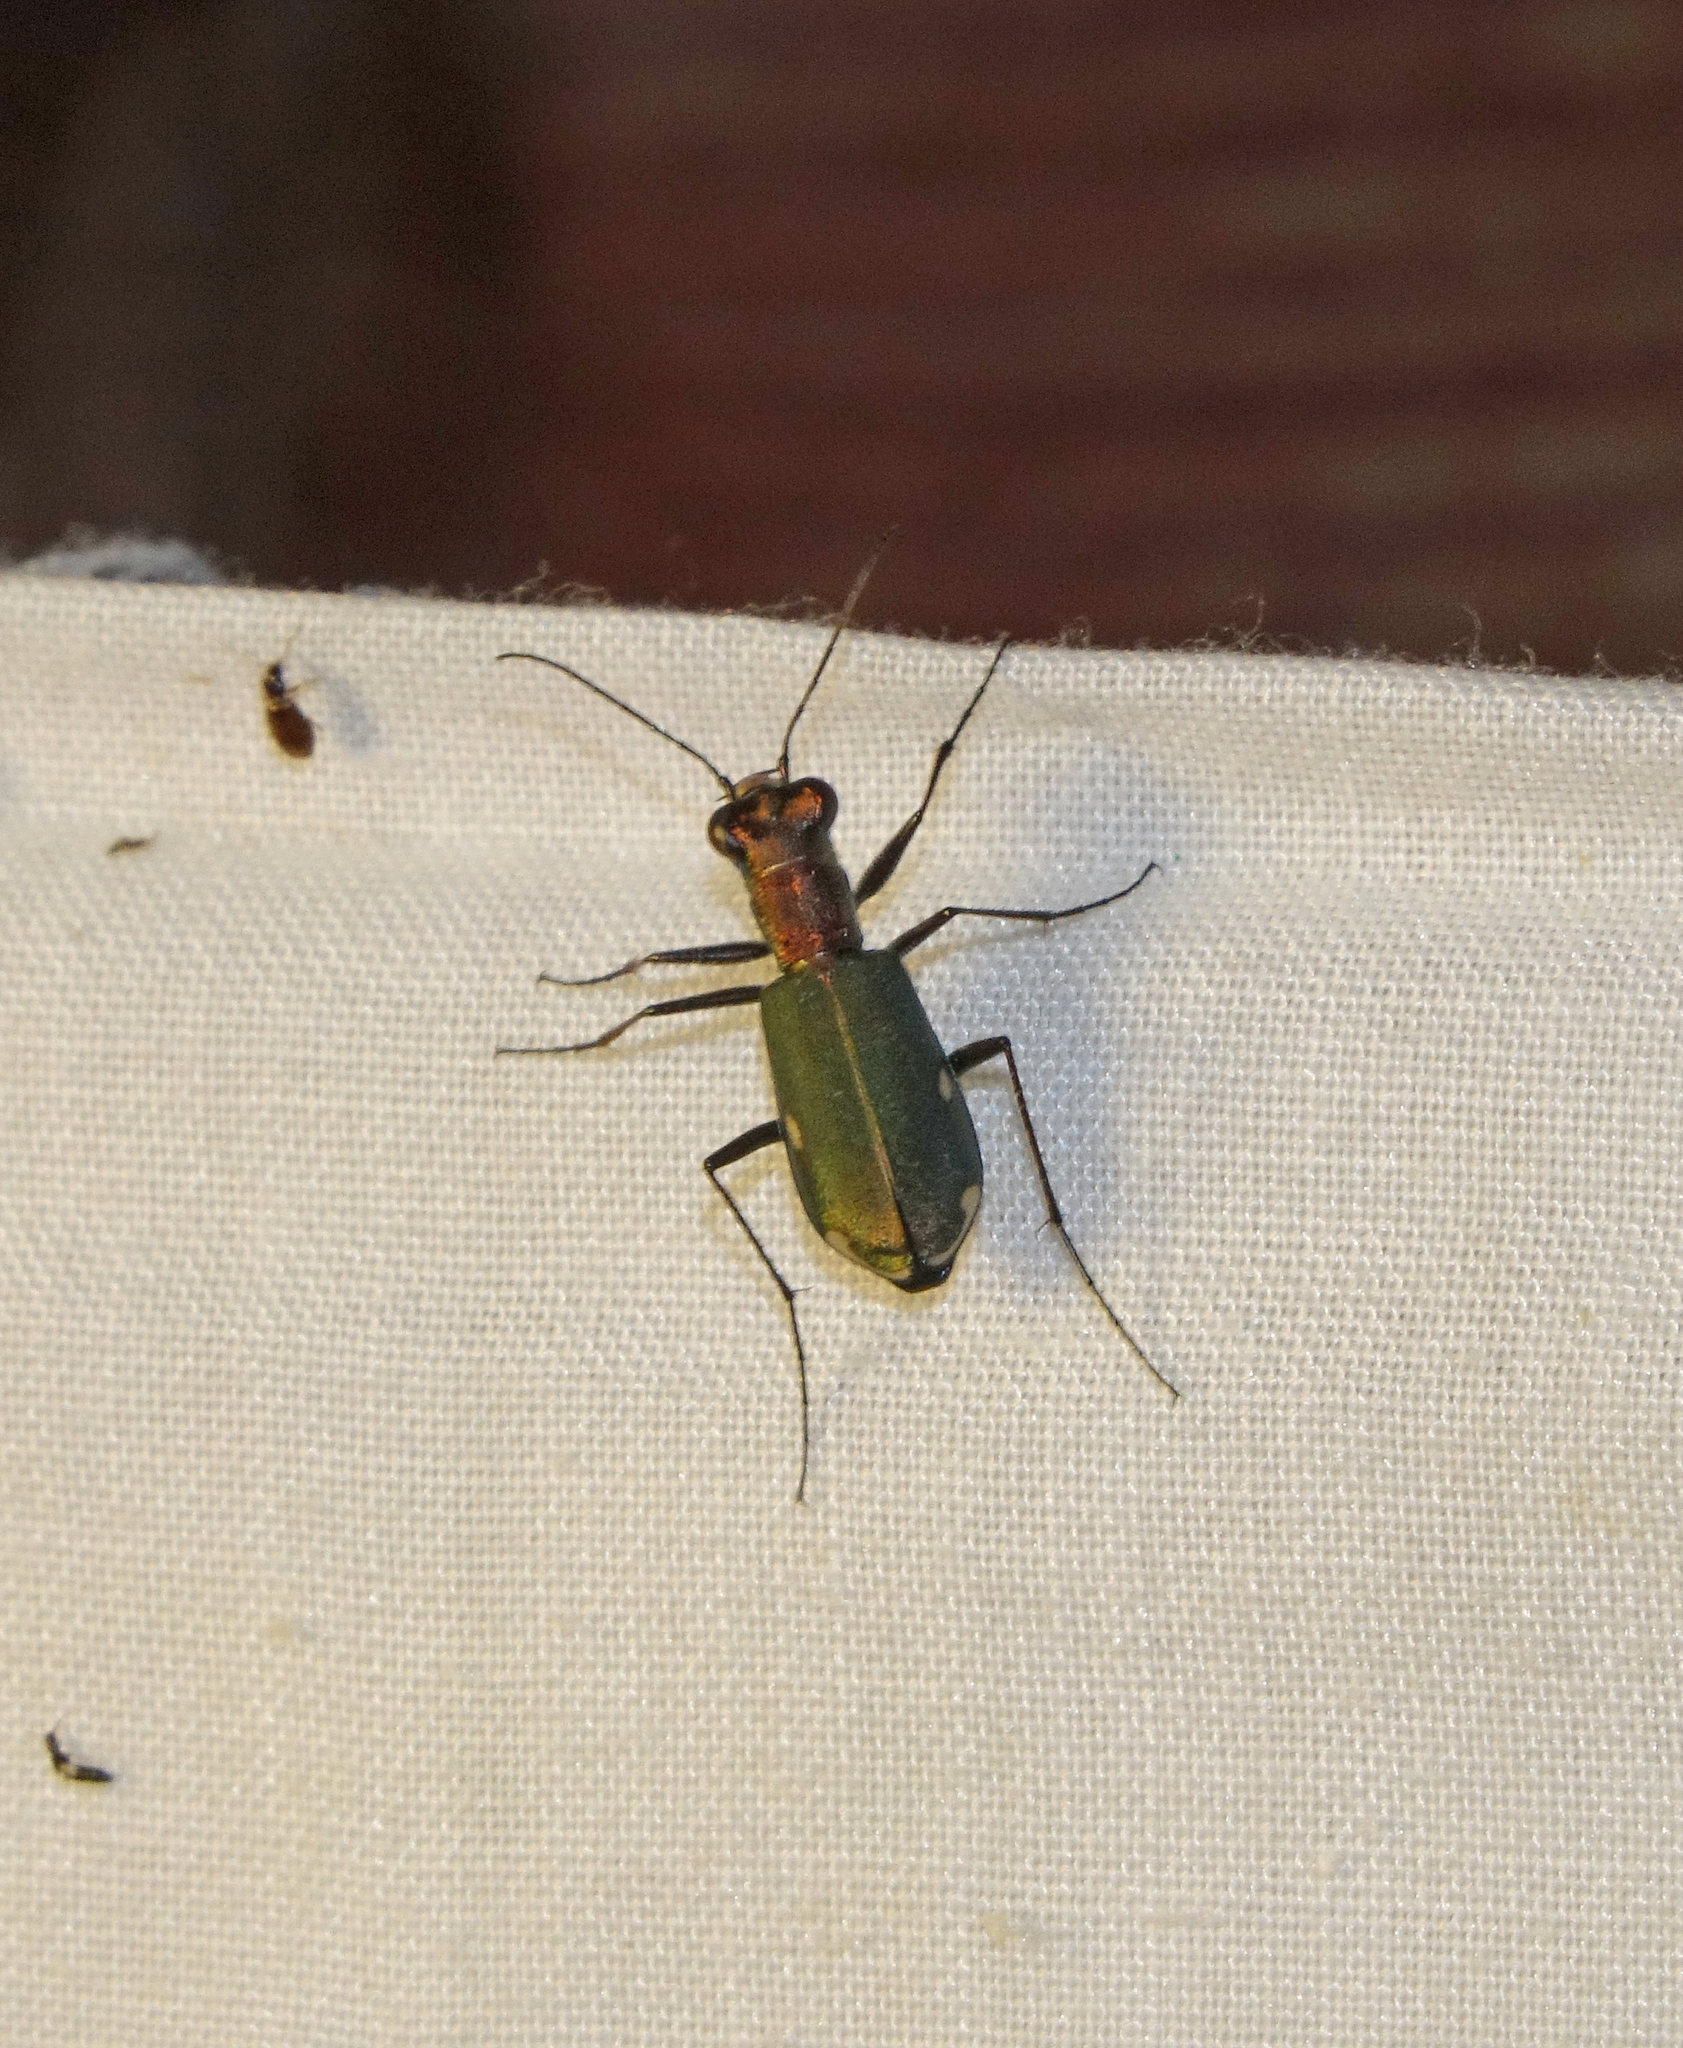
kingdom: Animalia
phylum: Arthropoda
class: Insecta
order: Coleoptera
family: Carabidae
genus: Cylindera
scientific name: Cylindera germanica
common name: Cliff tiger beetle
